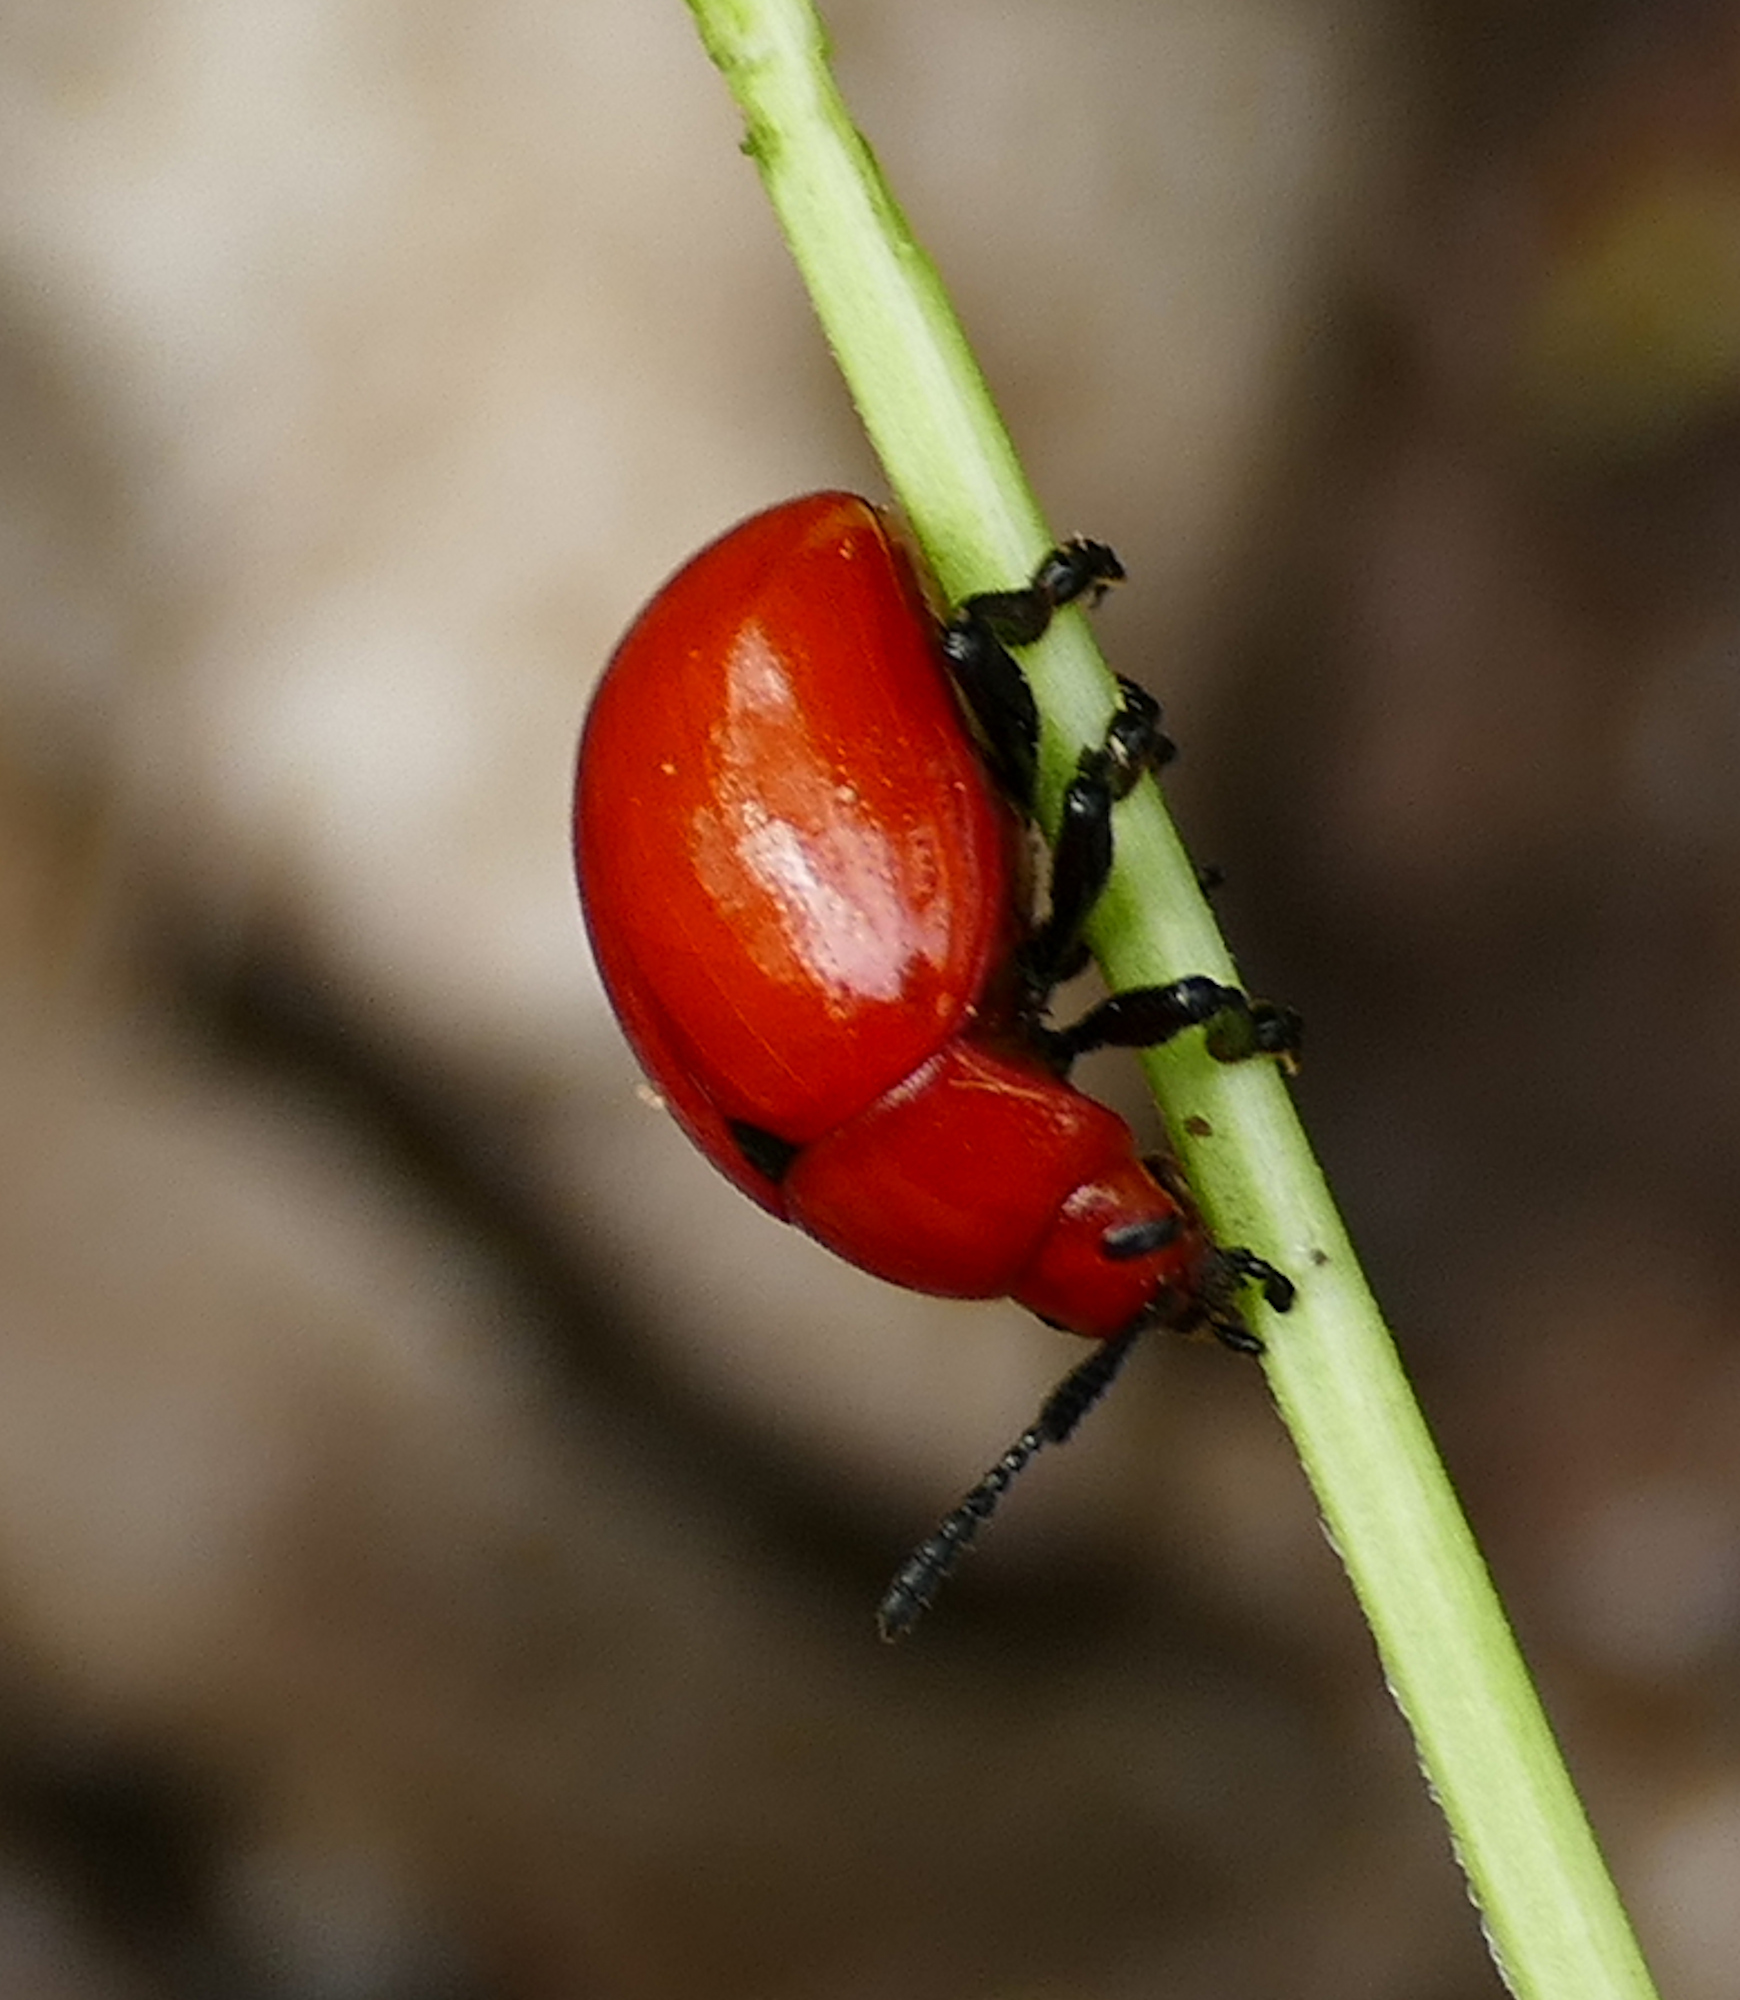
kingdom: Animalia
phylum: Arthropoda
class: Insecta
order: Coleoptera
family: Chrysomelidae
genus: Leptinotarsa
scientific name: Leptinotarsa rubiginosa
